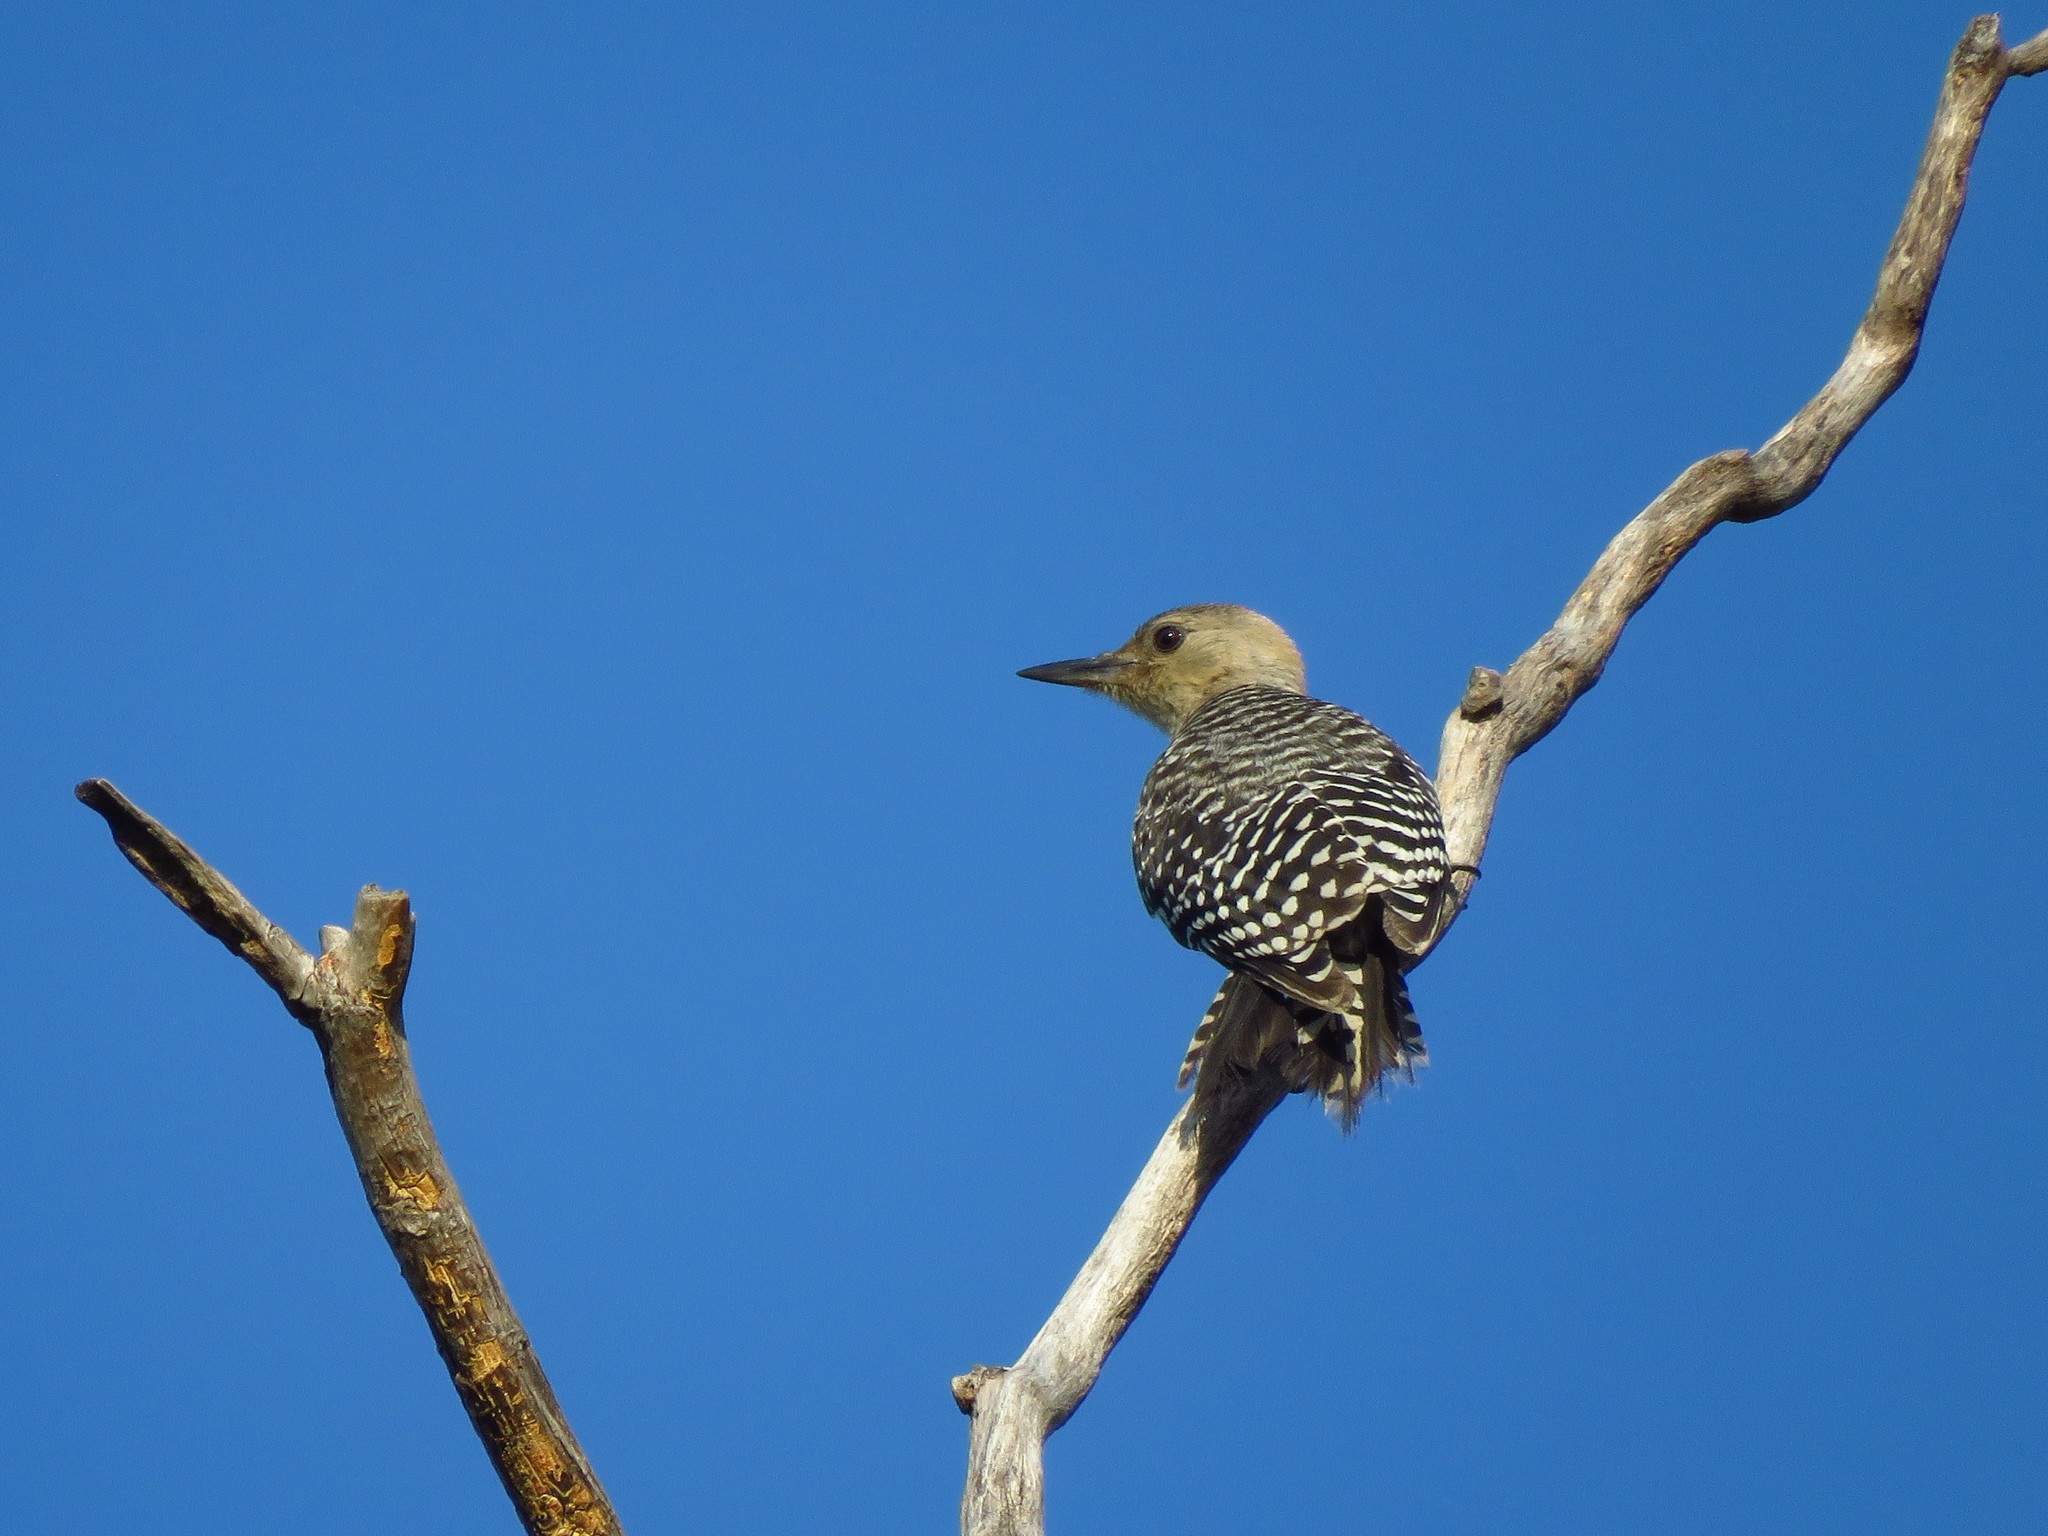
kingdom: Animalia
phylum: Chordata
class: Aves
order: Piciformes
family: Picidae
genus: Melanerpes
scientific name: Melanerpes carolinus
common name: Red-bellied woodpecker
